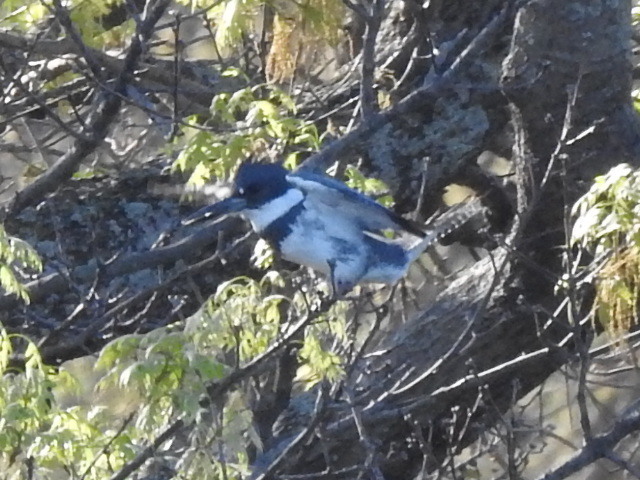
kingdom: Animalia
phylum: Chordata
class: Aves
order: Coraciiformes
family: Alcedinidae
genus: Megaceryle
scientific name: Megaceryle alcyon
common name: Belted kingfisher
